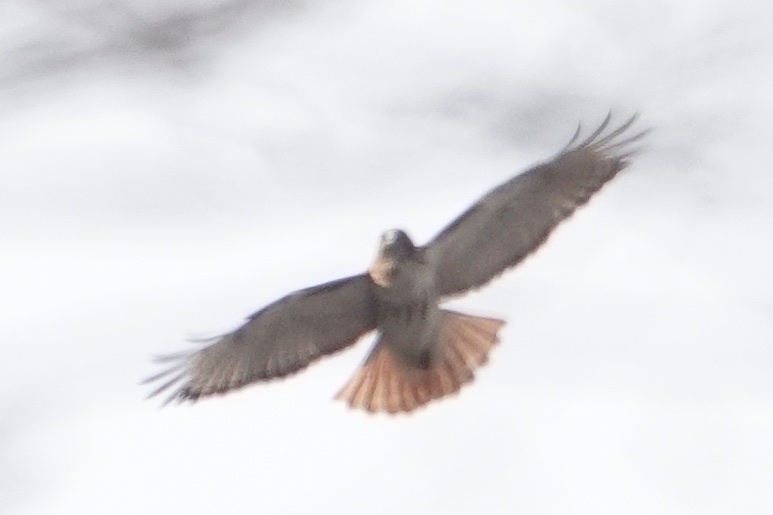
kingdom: Animalia
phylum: Chordata
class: Aves
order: Accipitriformes
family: Accipitridae
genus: Buteo
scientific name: Buteo jamaicensis
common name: Red-tailed hawk
